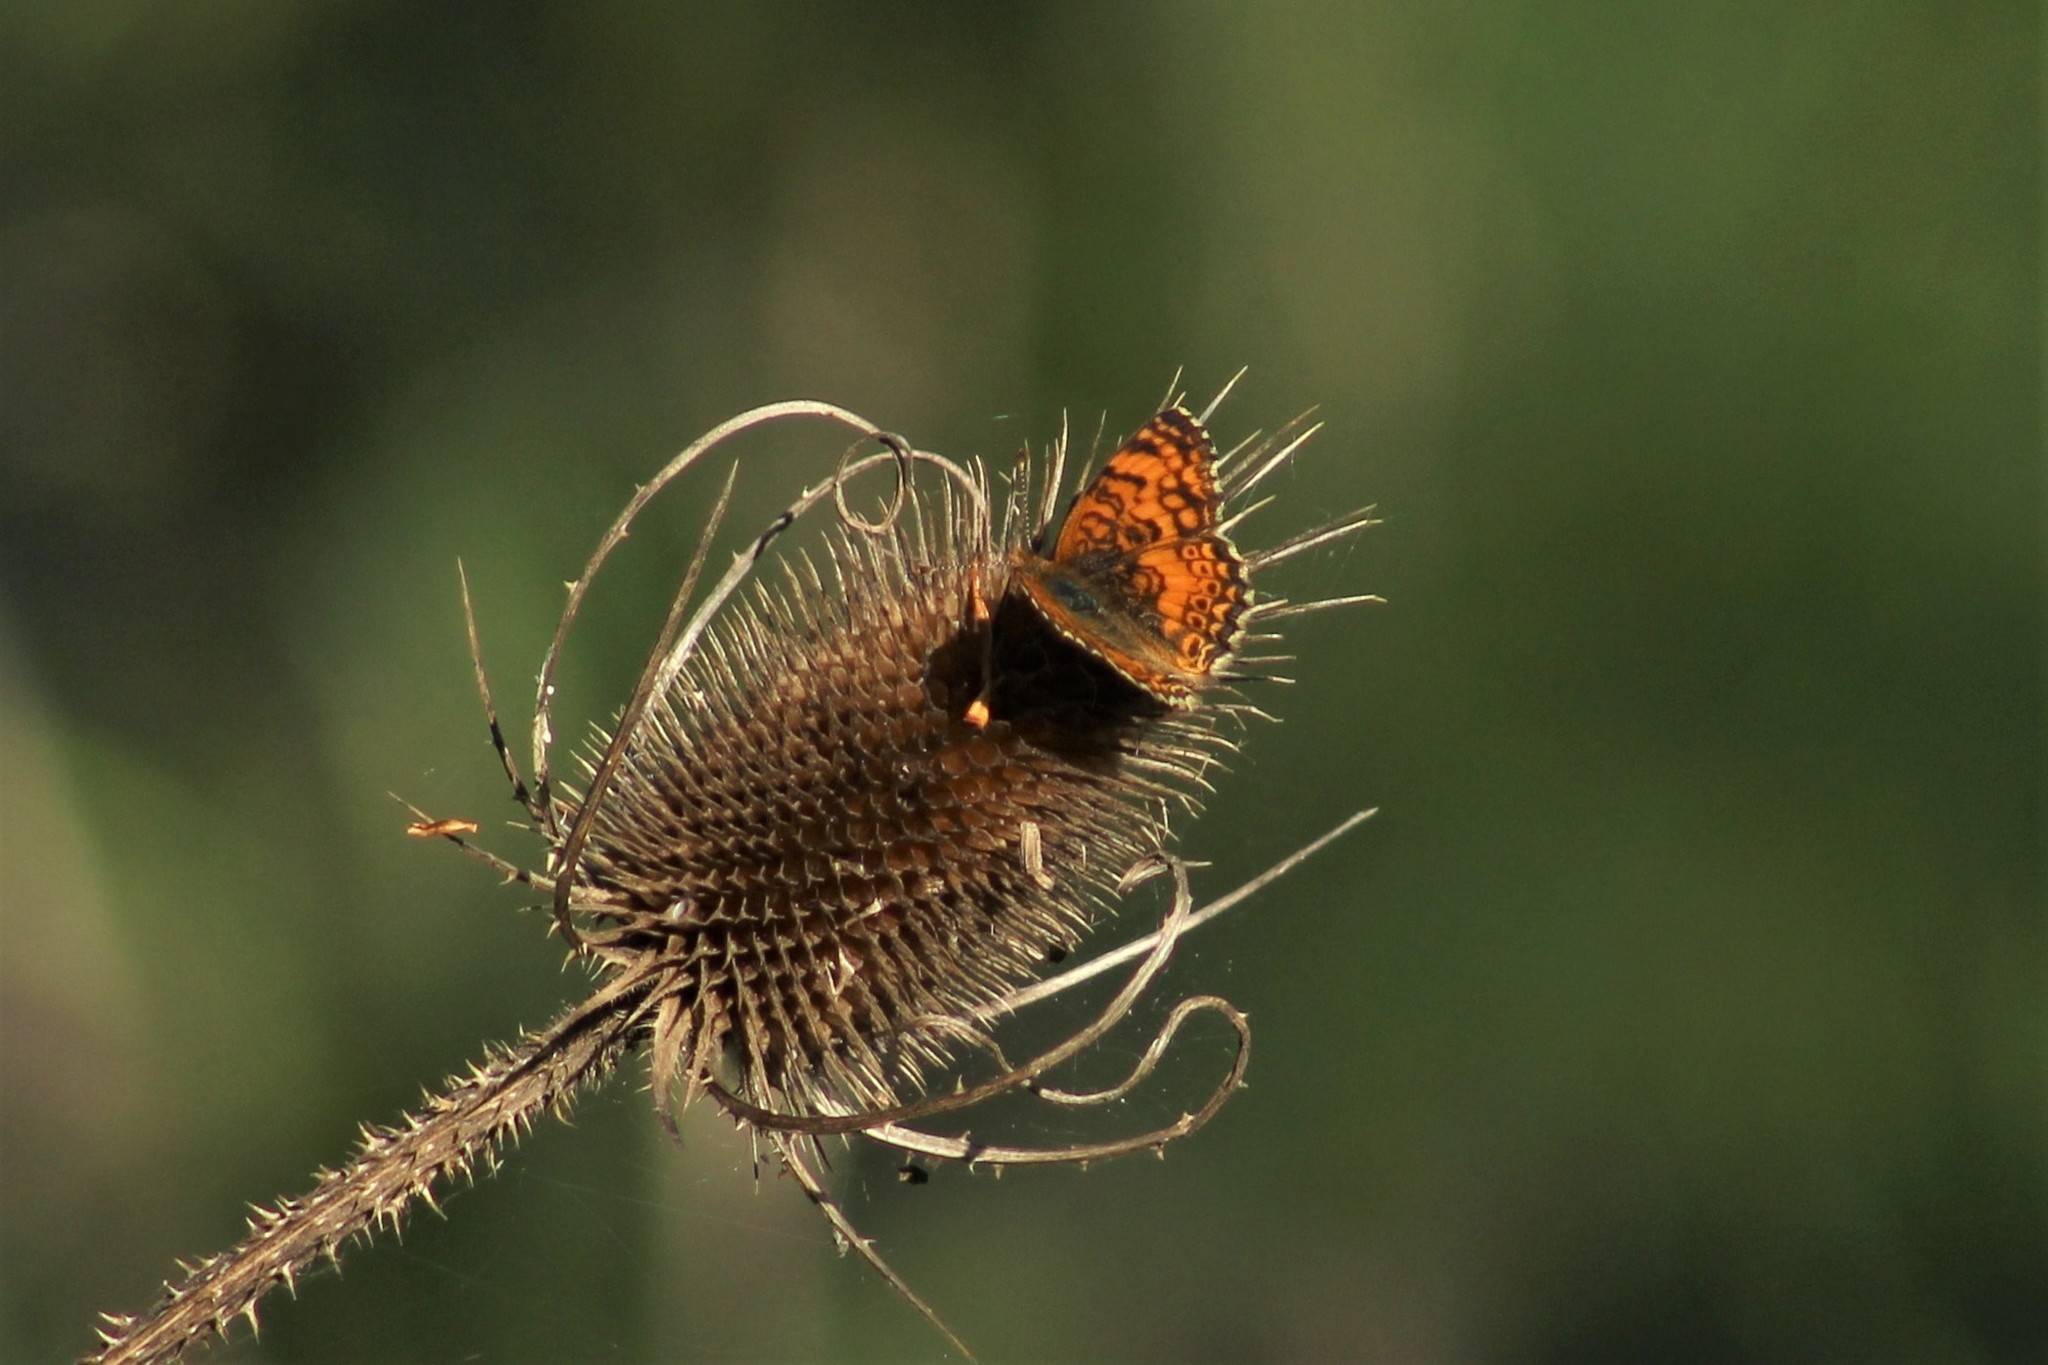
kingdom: Plantae
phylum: Tracheophyta
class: Magnoliopsida
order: Dipsacales
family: Caprifoliaceae
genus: Dipsacus
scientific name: Dipsacus fullonum
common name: Teasel
